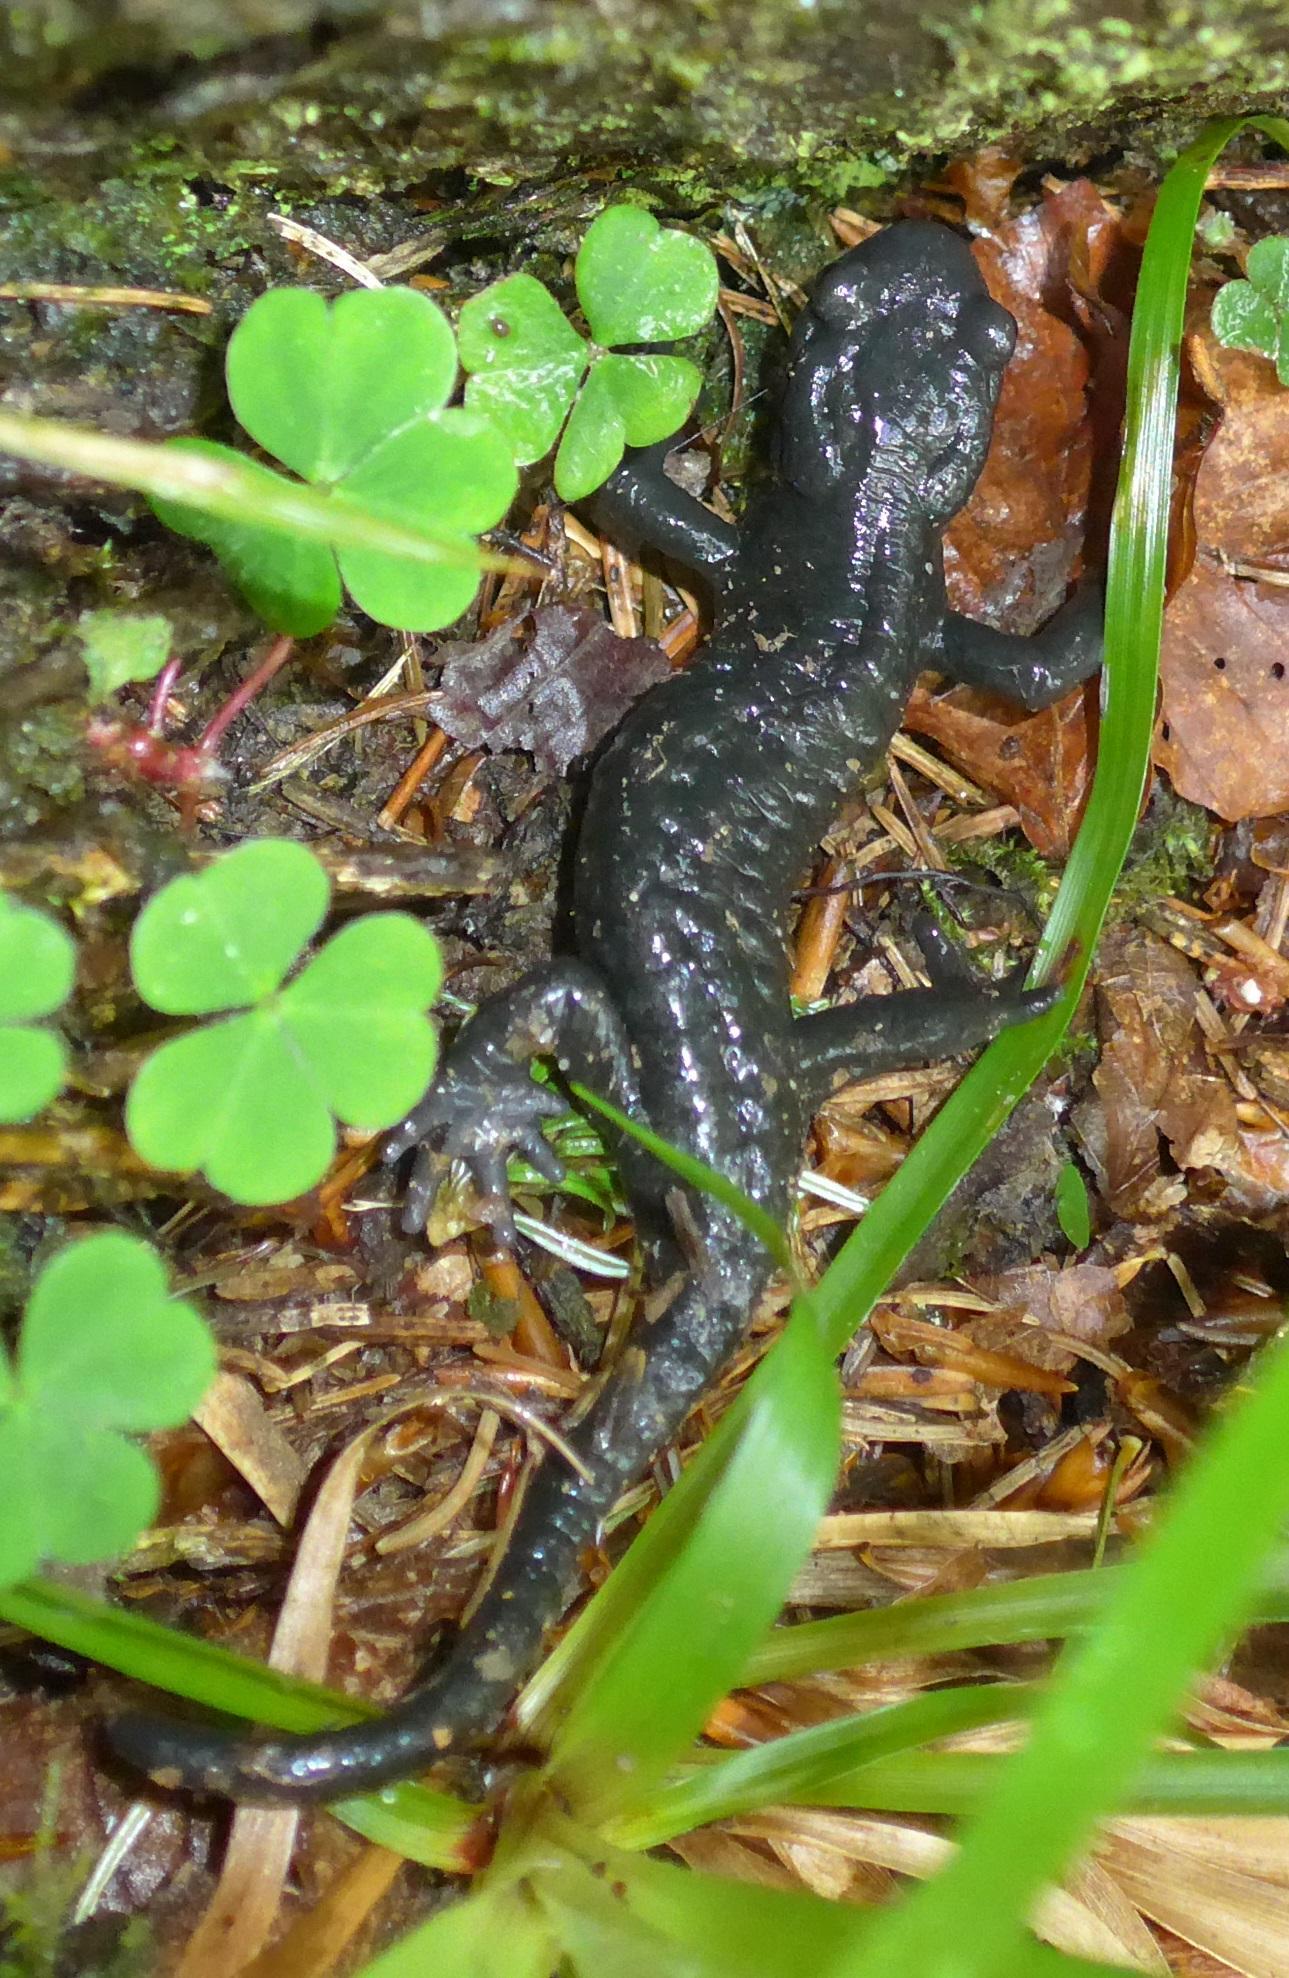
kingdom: Animalia
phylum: Chordata
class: Amphibia
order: Caudata
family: Salamandridae
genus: Salamandra
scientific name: Salamandra atra
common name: Alpine salamander
